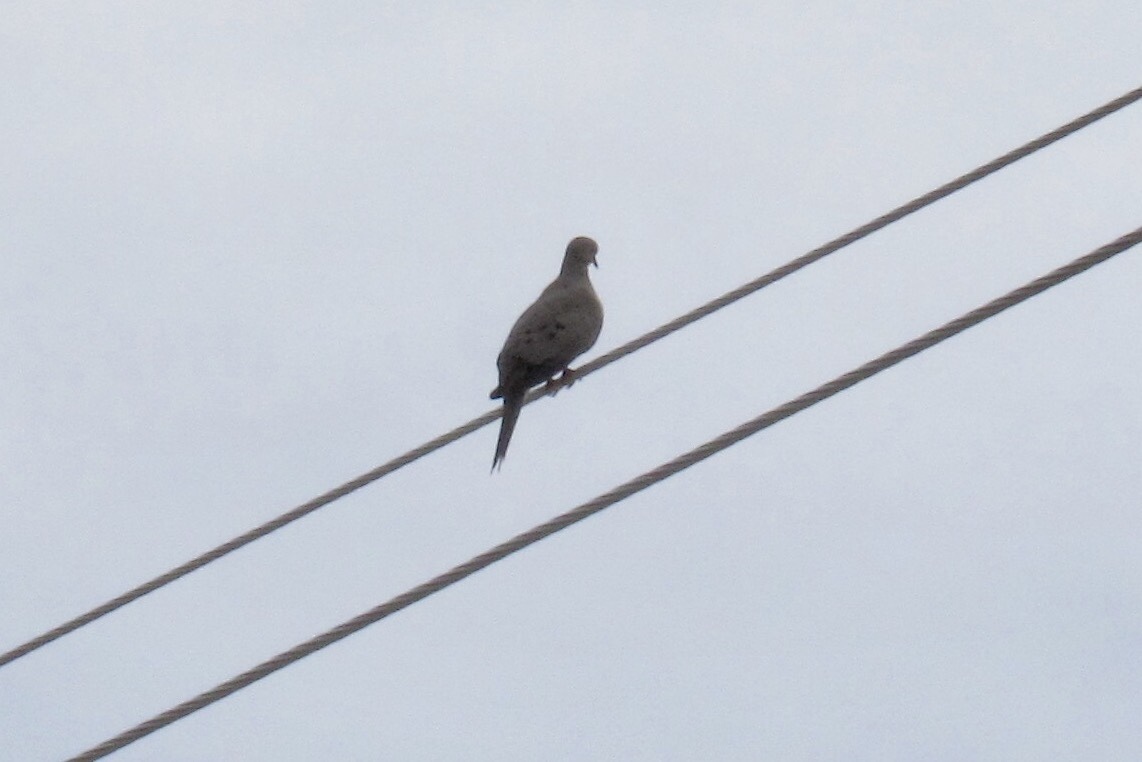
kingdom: Animalia
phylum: Chordata
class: Aves
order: Columbiformes
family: Columbidae
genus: Zenaida
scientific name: Zenaida macroura
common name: Mourning dove
